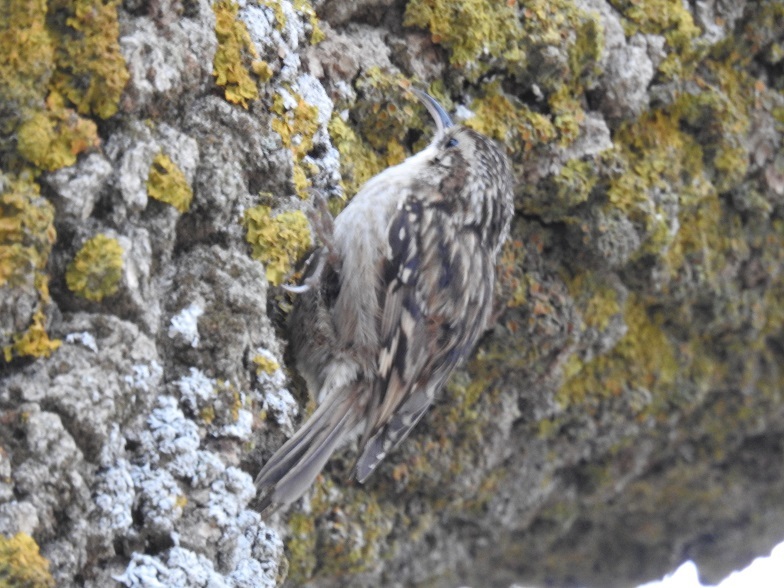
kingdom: Animalia
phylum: Chordata
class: Aves
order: Passeriformes
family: Certhiidae
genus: Certhia
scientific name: Certhia brachydactyla
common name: Short-toed treecreeper
